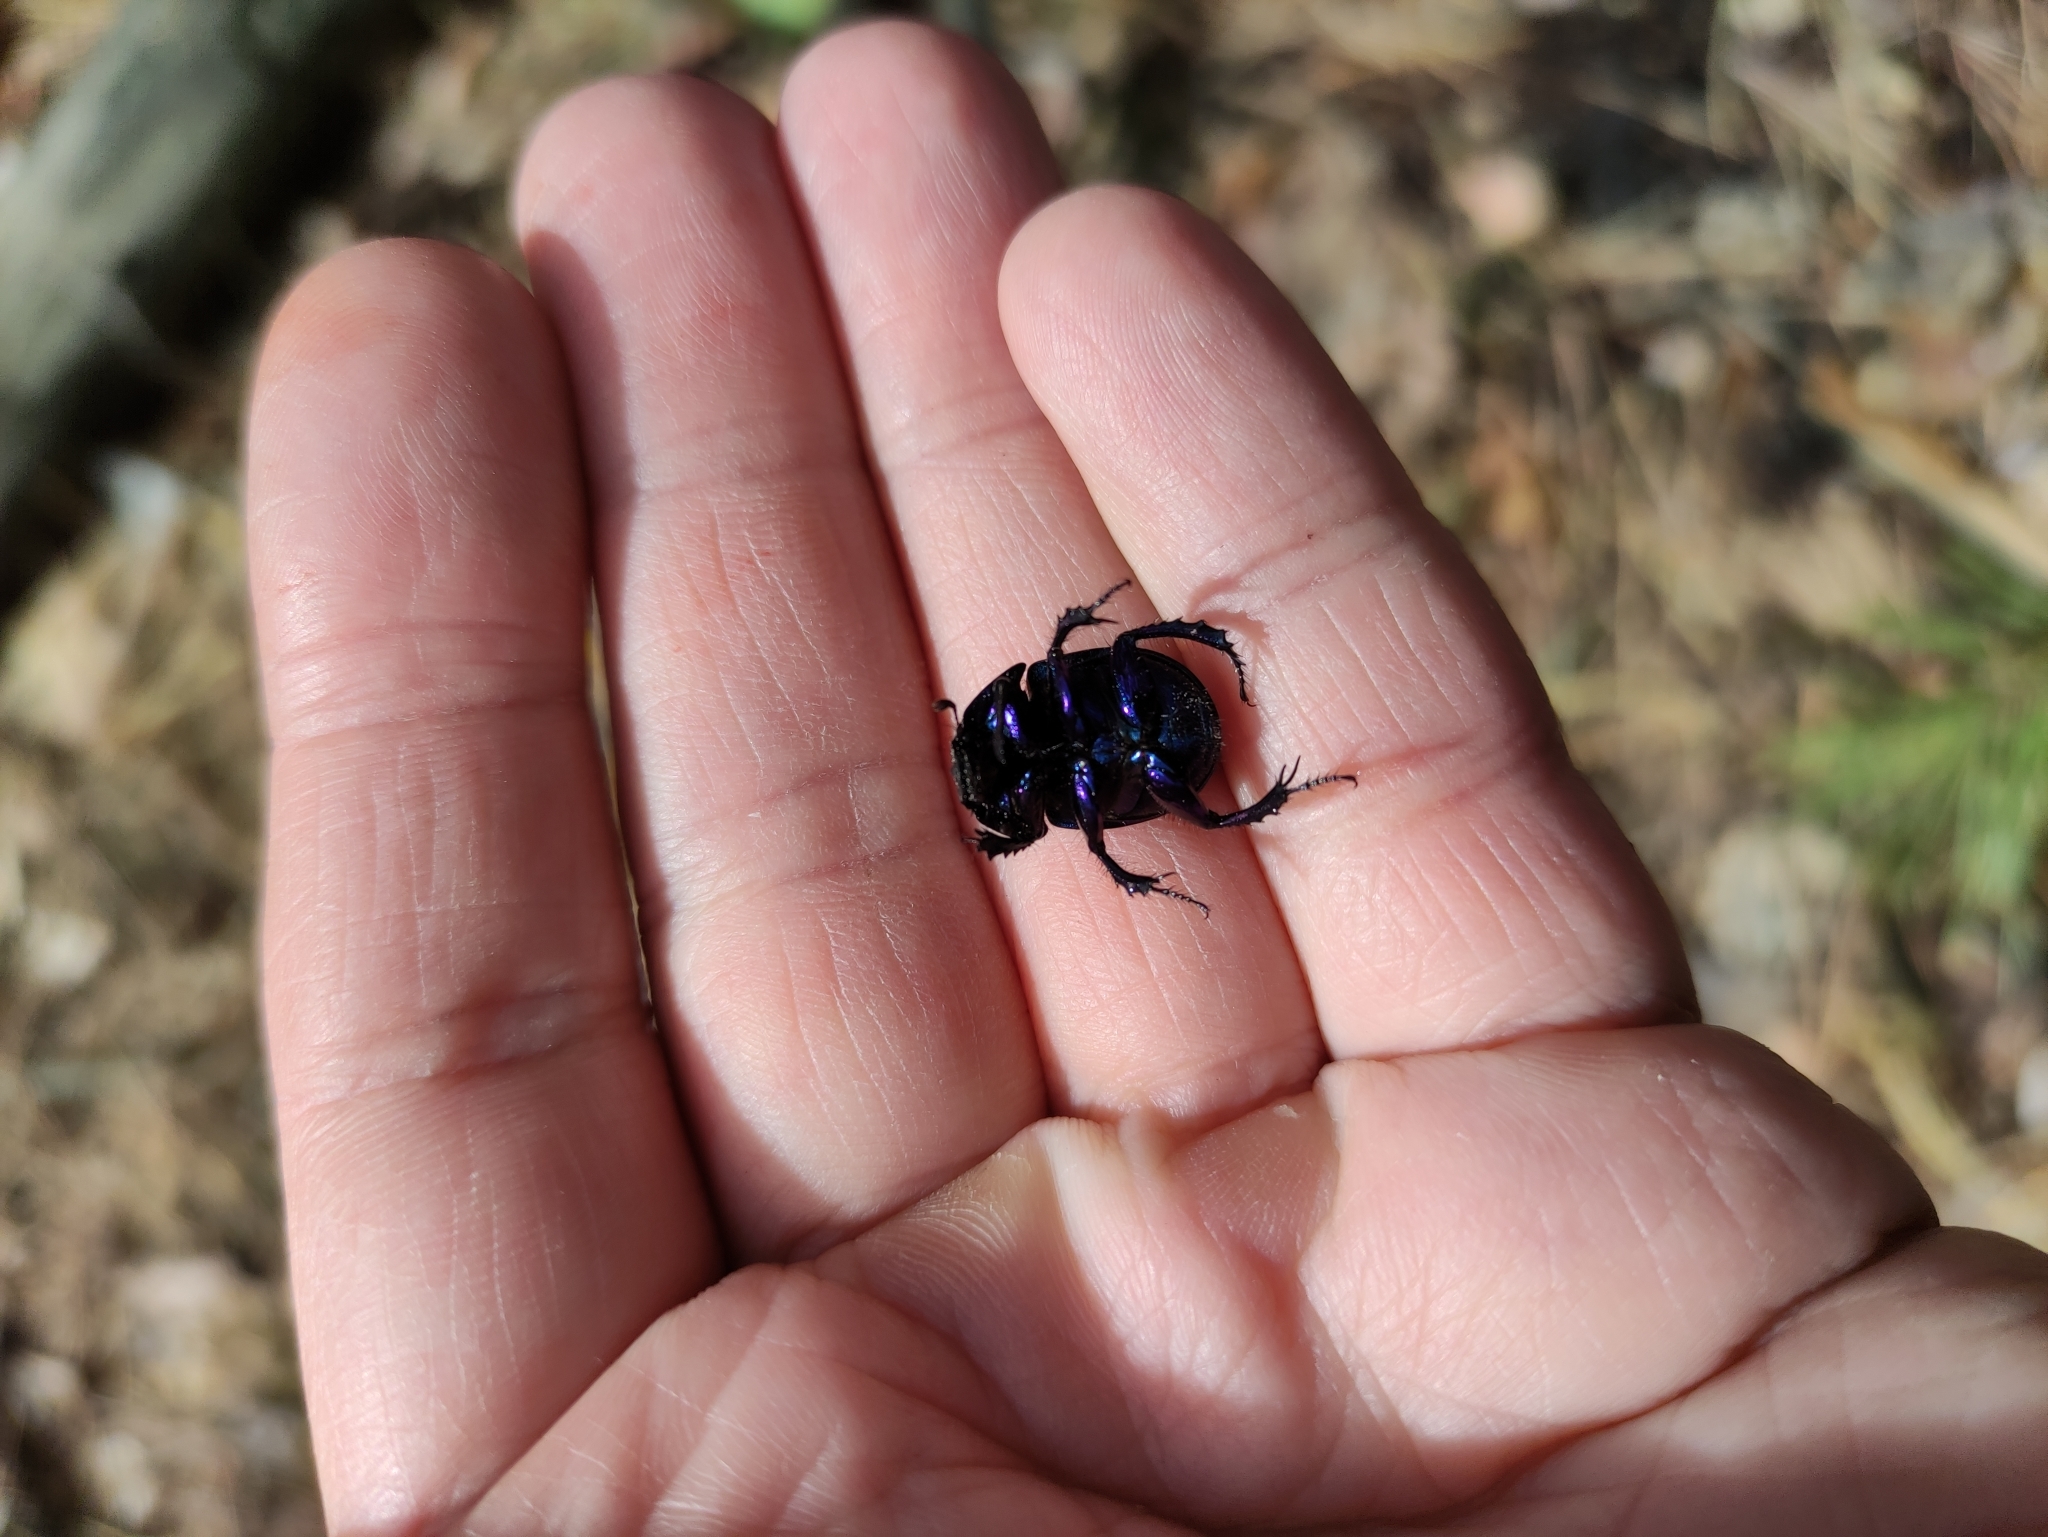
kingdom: Animalia
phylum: Arthropoda
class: Insecta
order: Coleoptera
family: Geotrupidae
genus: Anoplotrupes
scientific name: Anoplotrupes stercorosus
